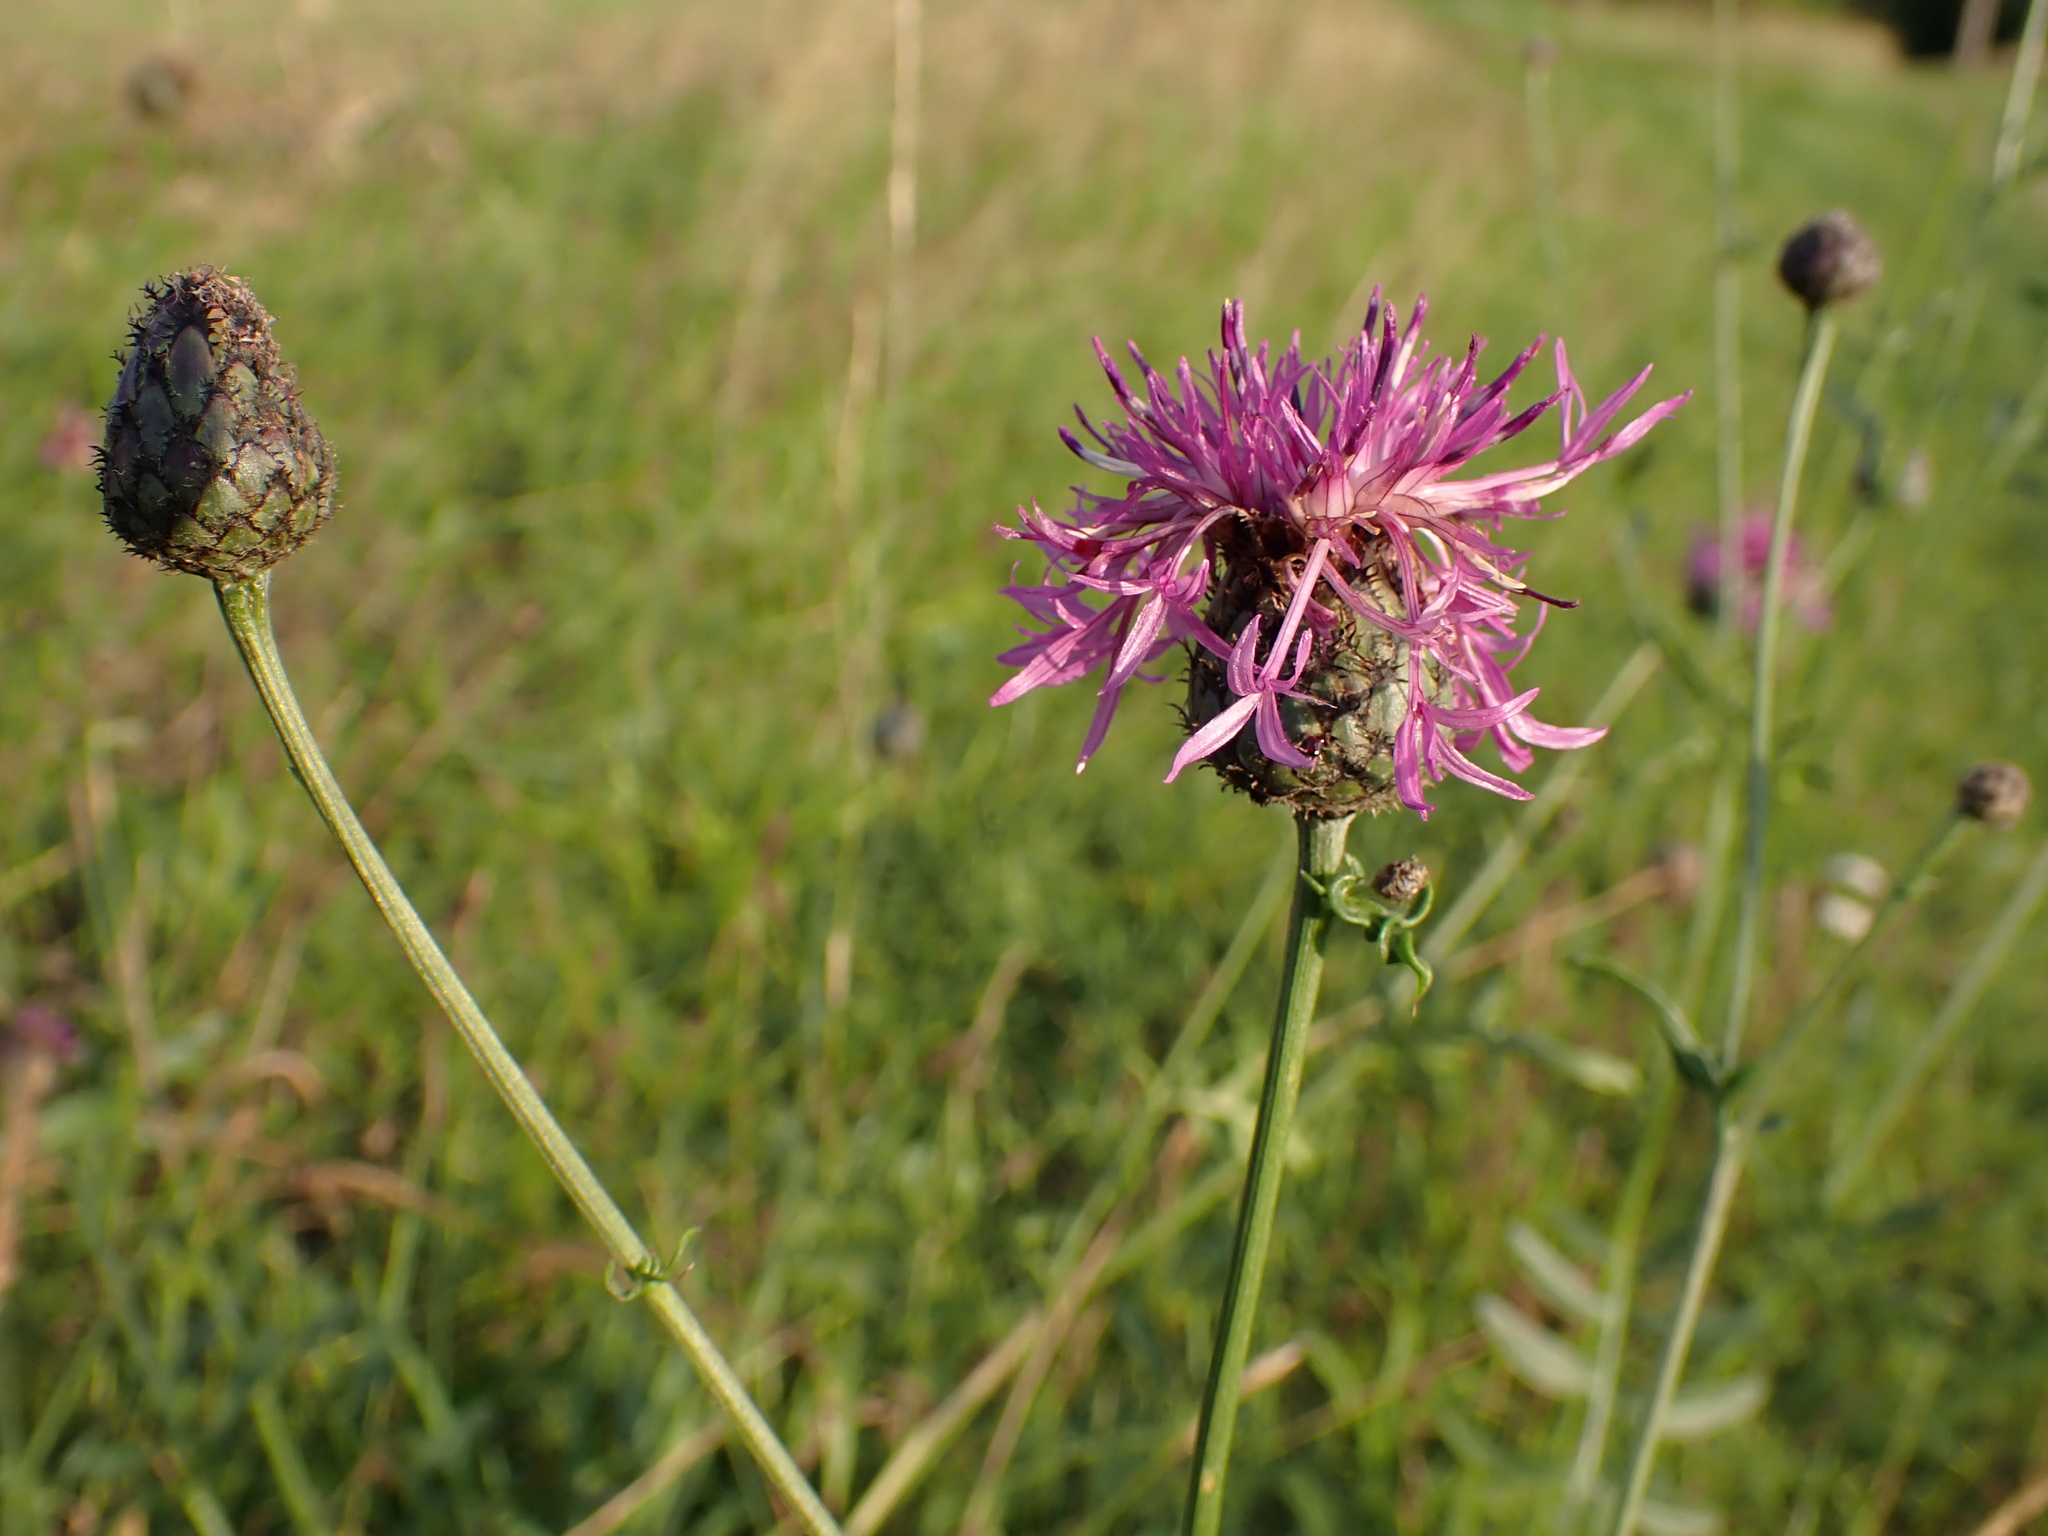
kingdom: Plantae
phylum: Tracheophyta
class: Magnoliopsida
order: Asterales
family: Asteraceae
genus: Centaurea
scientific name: Centaurea scabiosa
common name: Greater knapweed
